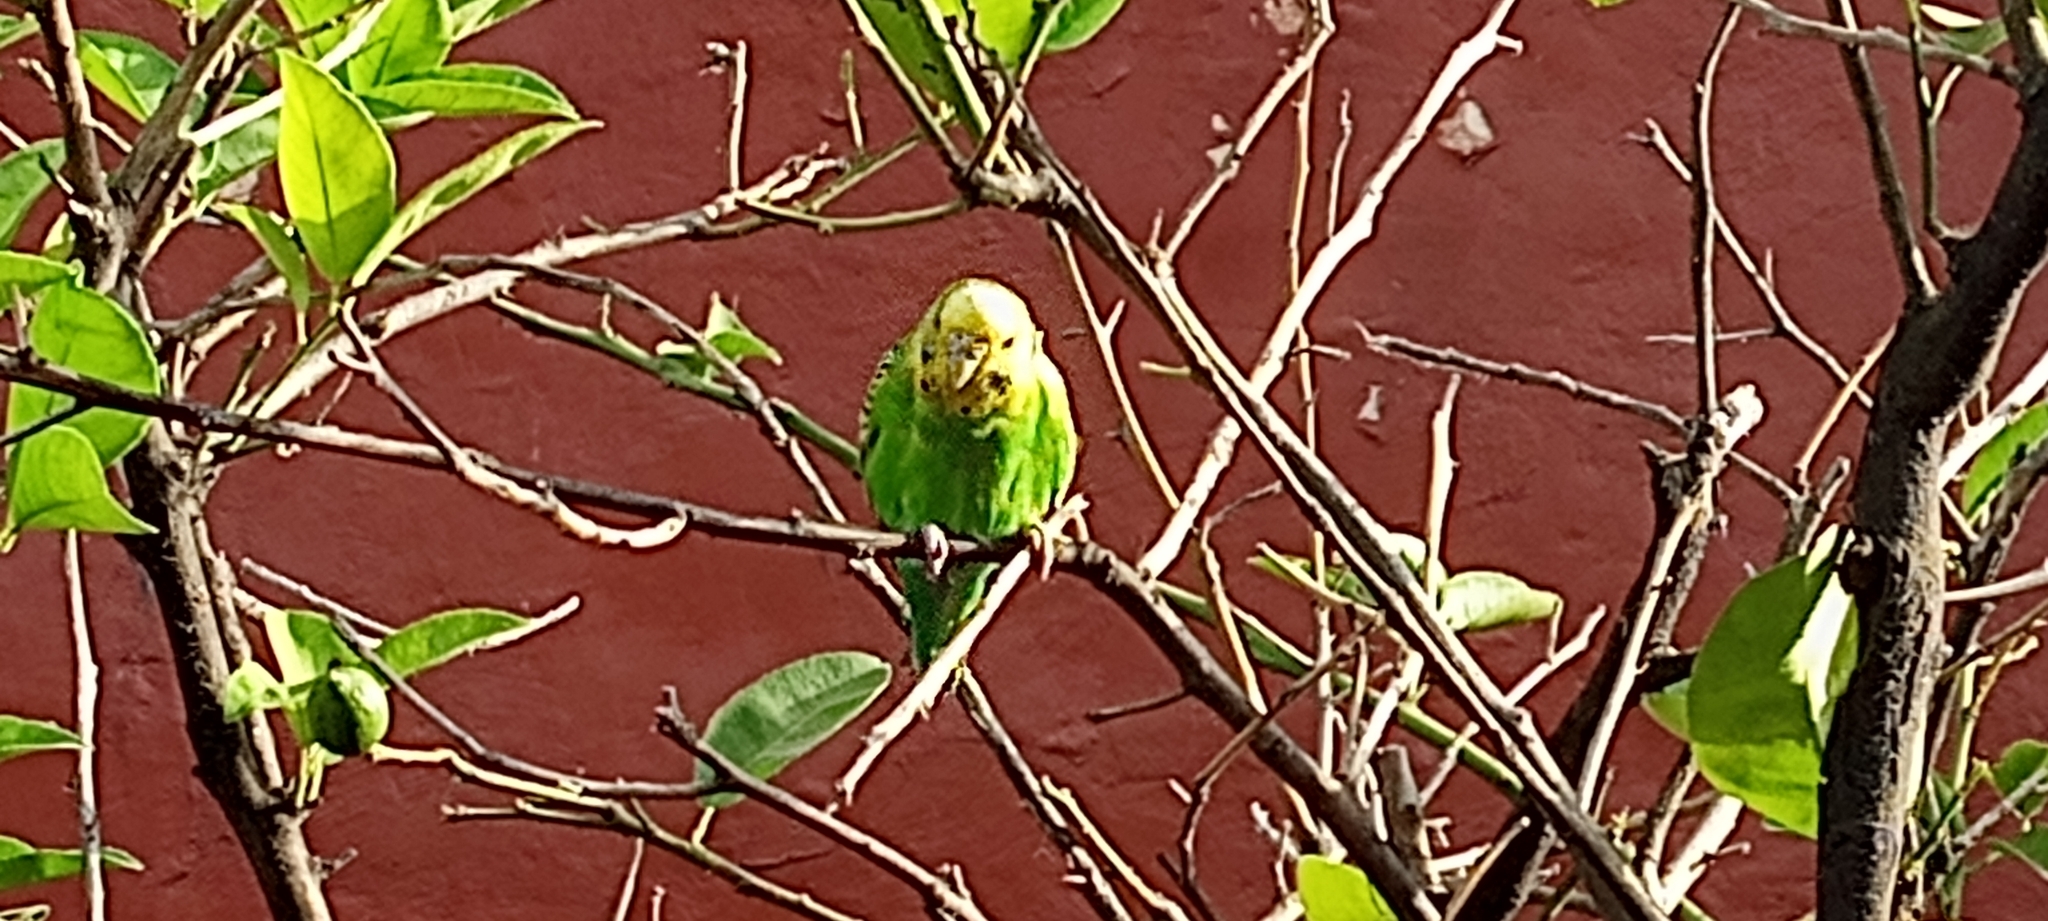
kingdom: Animalia
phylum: Chordata
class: Aves
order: Psittaciformes
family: Psittacidae
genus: Melopsittacus
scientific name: Melopsittacus undulatus
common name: Budgerigar
